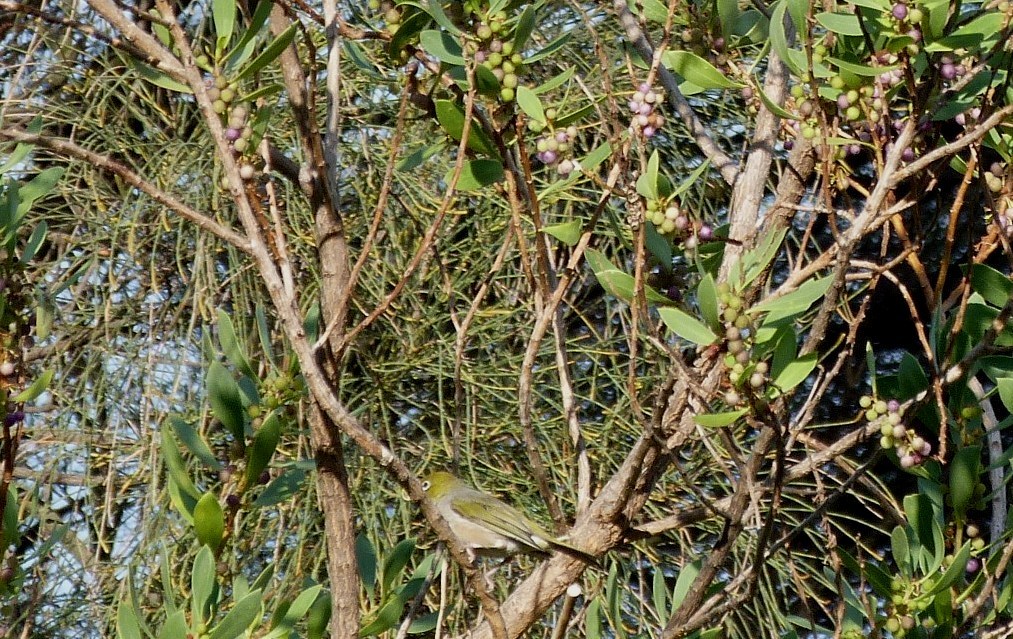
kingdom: Animalia
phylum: Chordata
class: Aves
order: Passeriformes
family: Zosteropidae
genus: Zosterops
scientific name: Zosterops lateralis
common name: Silvereye
